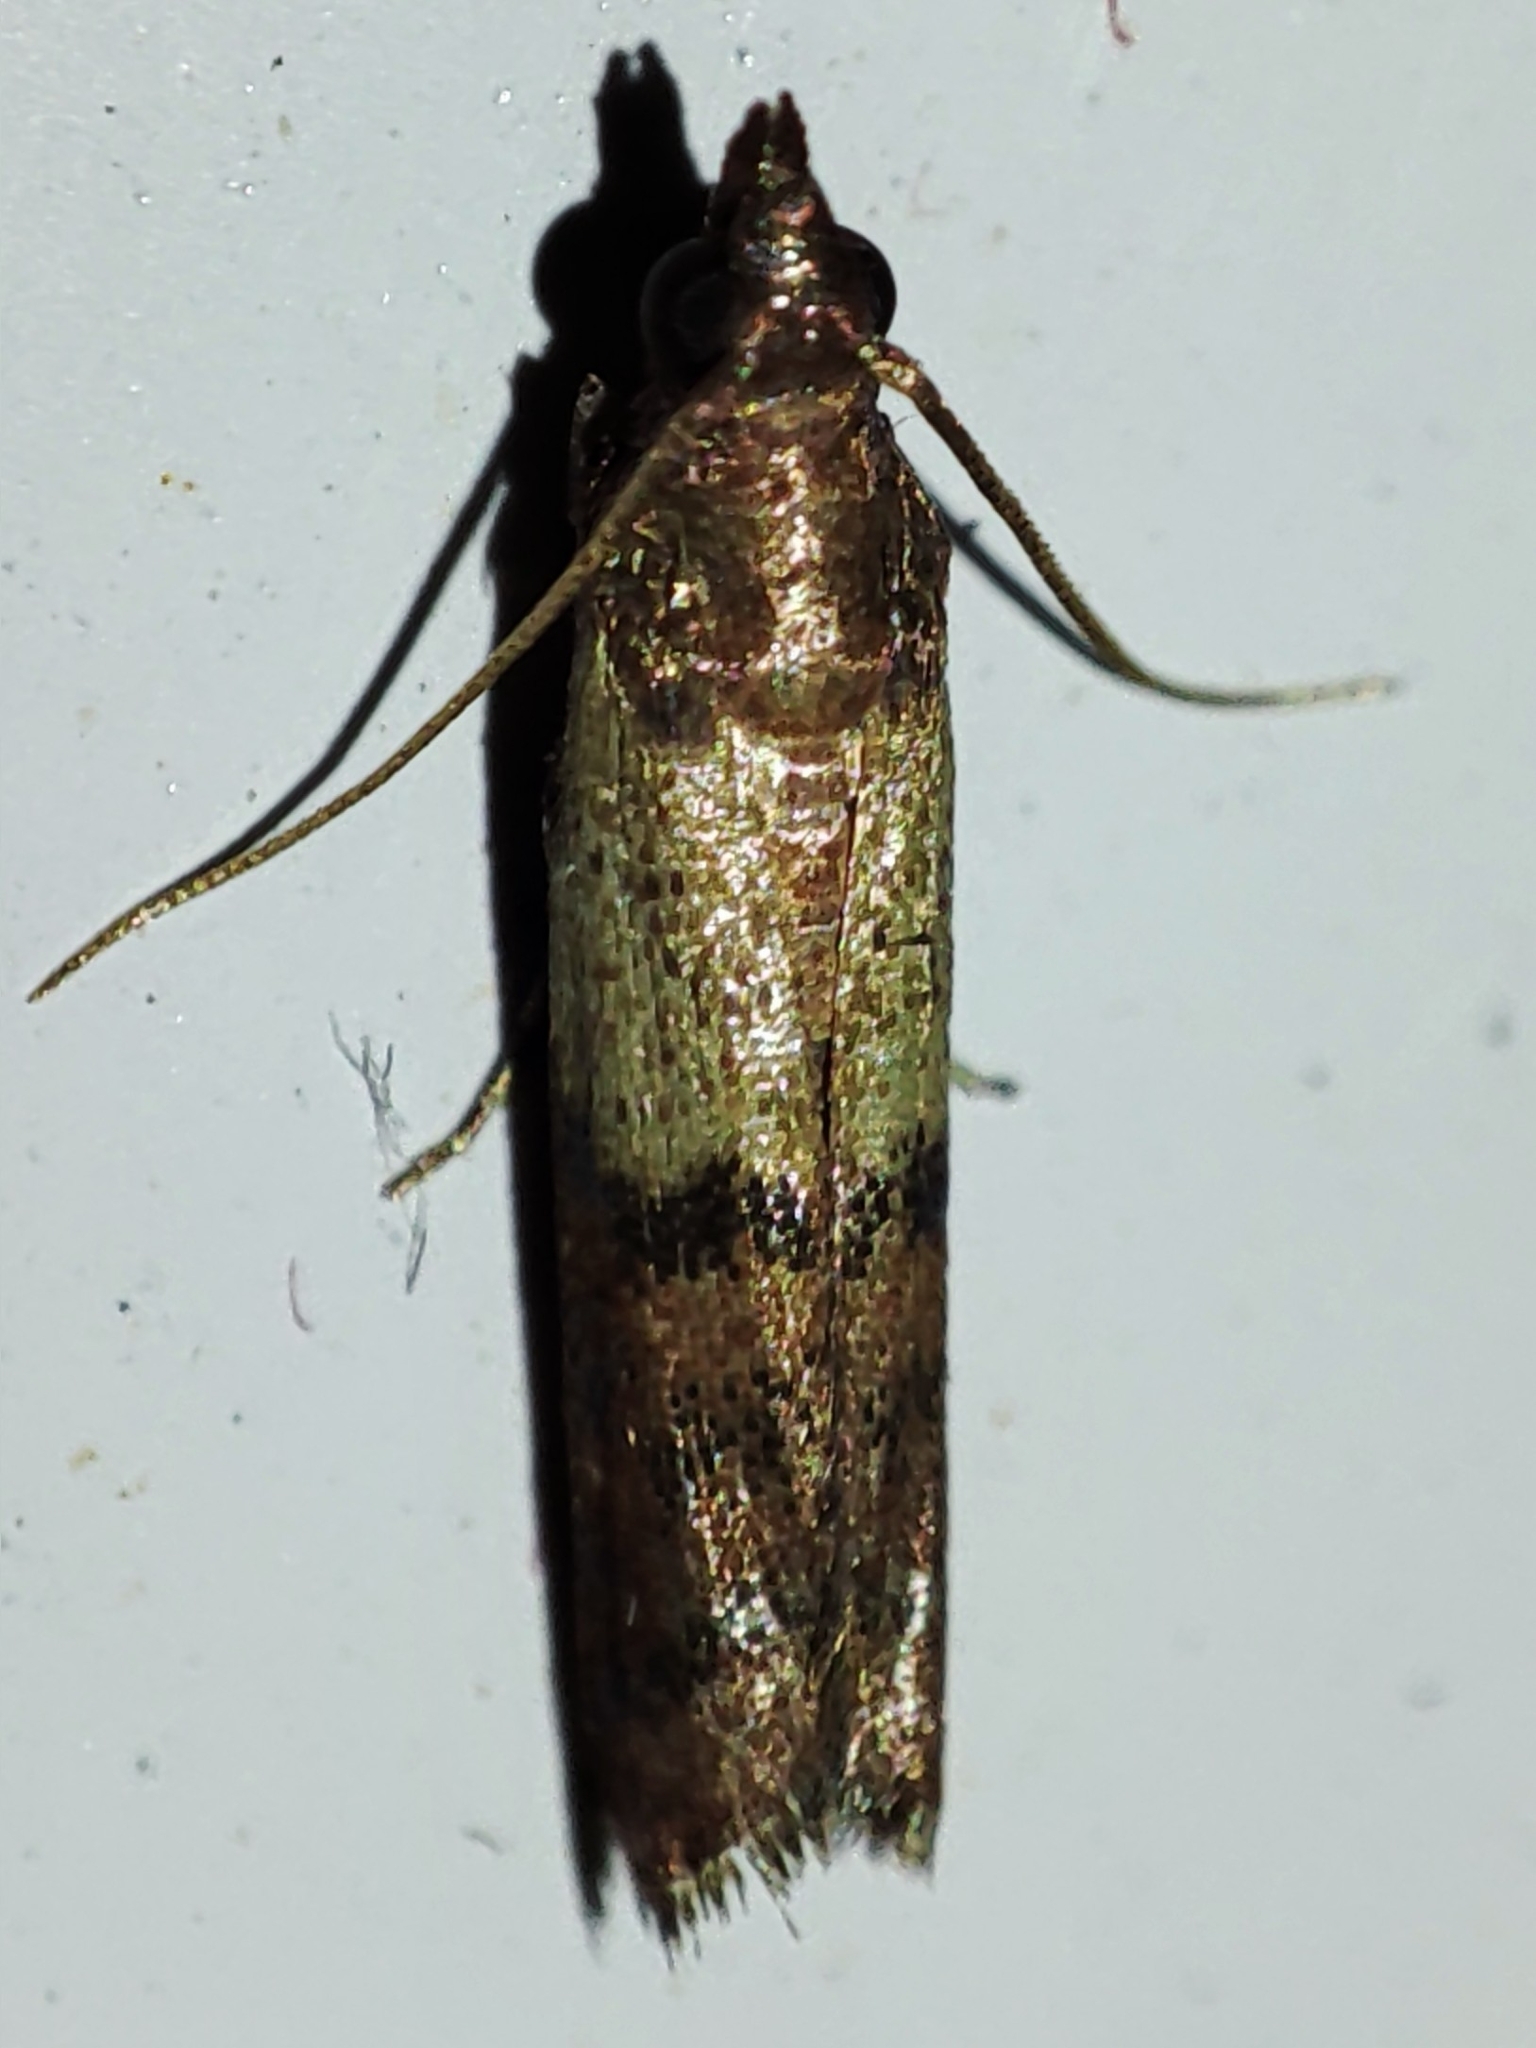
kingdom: Animalia
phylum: Arthropoda
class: Insecta
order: Lepidoptera
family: Pyralidae
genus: Plodia
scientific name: Plodia interpunctella
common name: Indian meal moth
